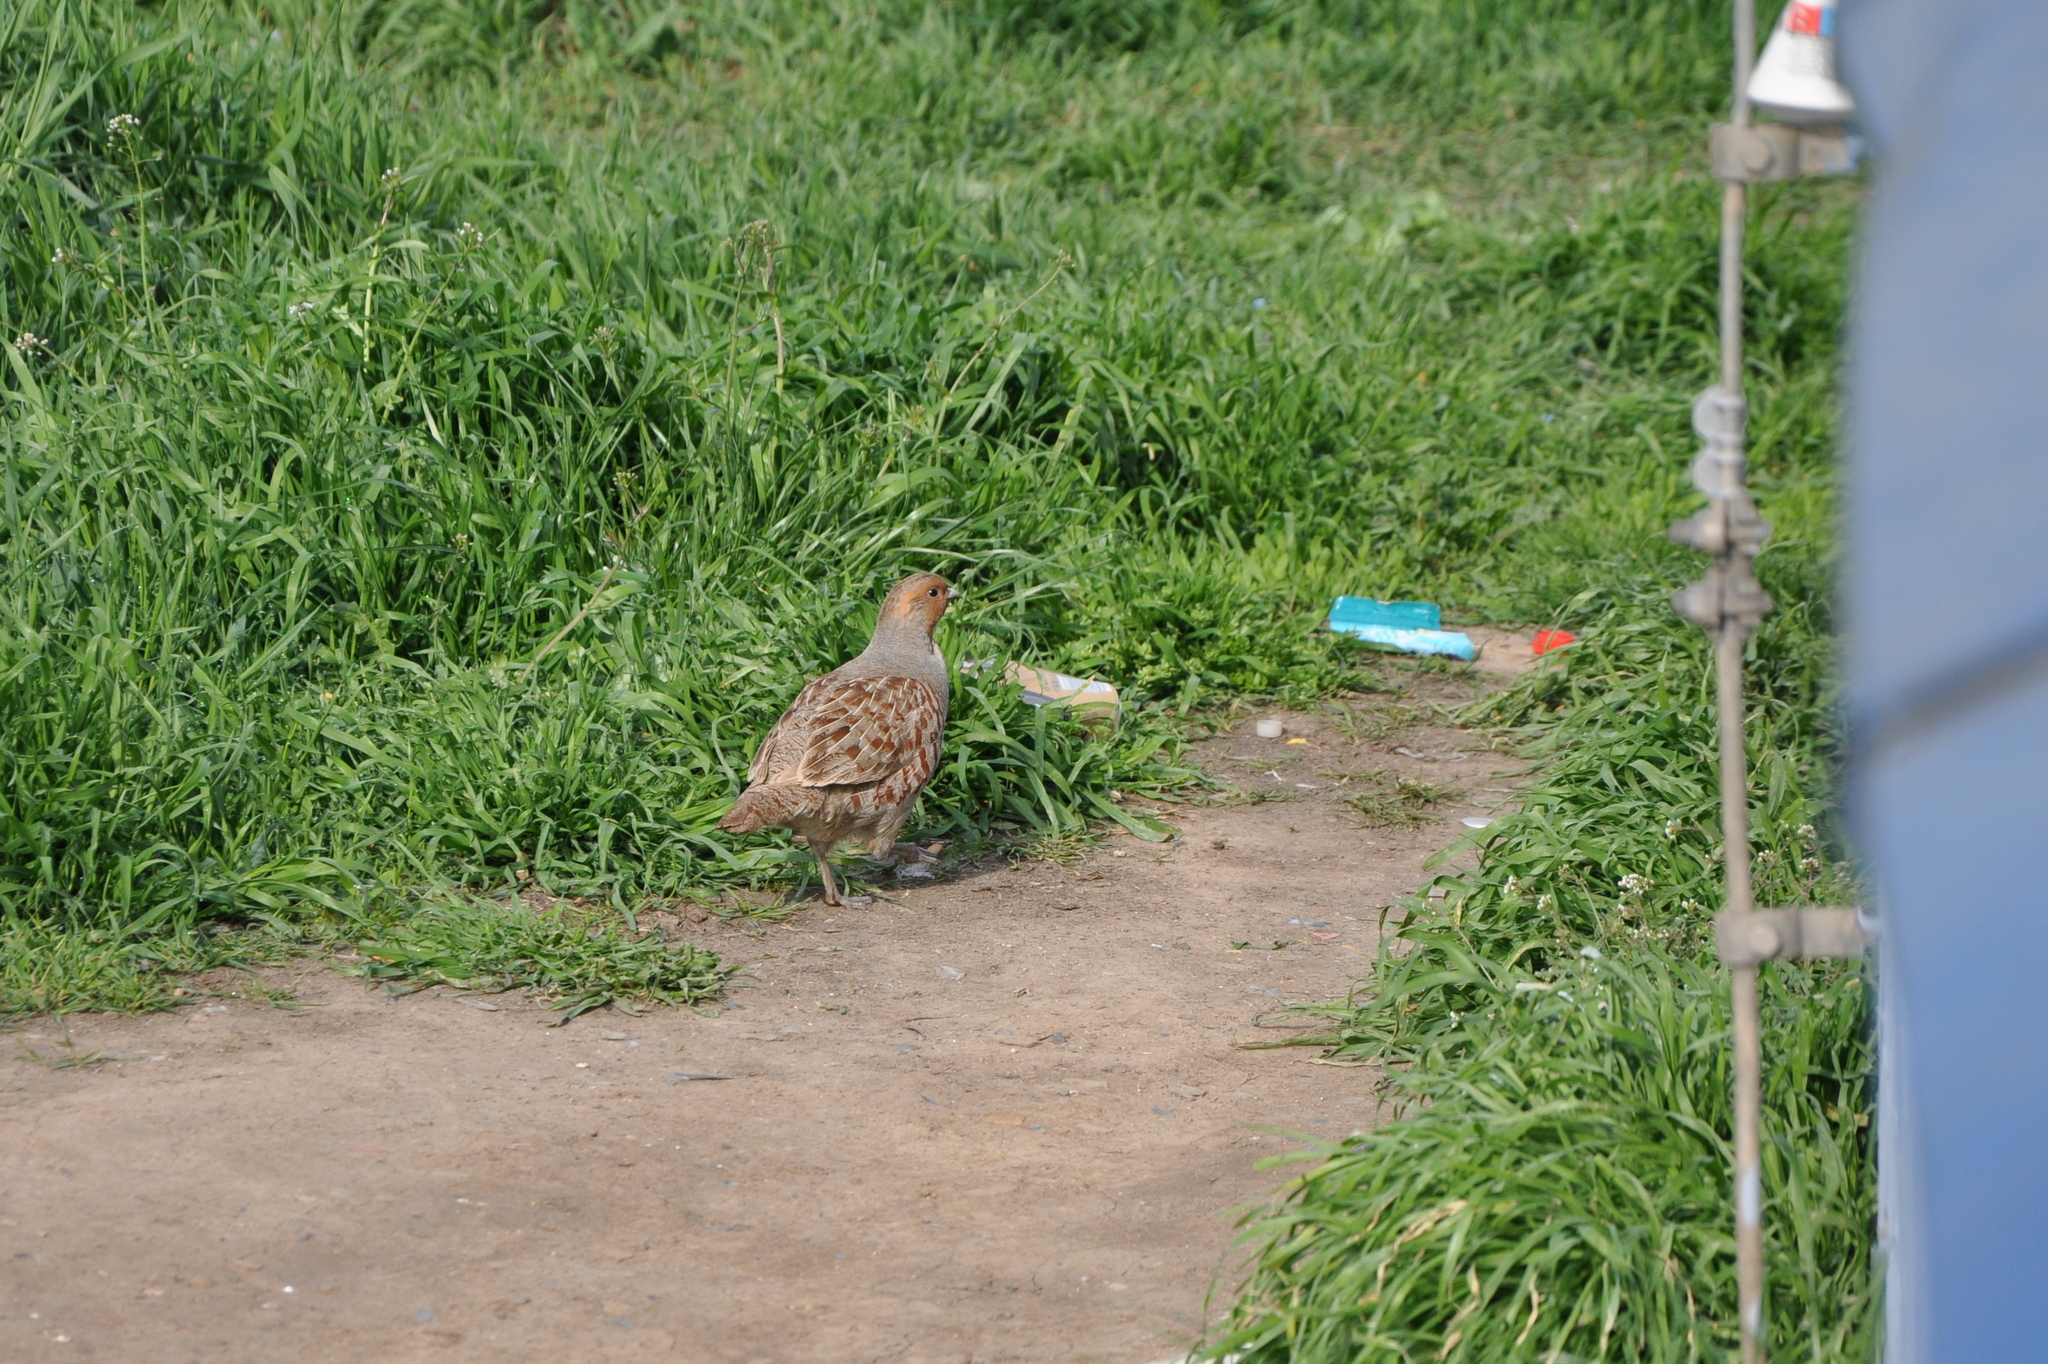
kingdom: Animalia
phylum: Chordata
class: Aves
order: Galliformes
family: Phasianidae
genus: Perdix
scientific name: Perdix perdix
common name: Grey partridge
